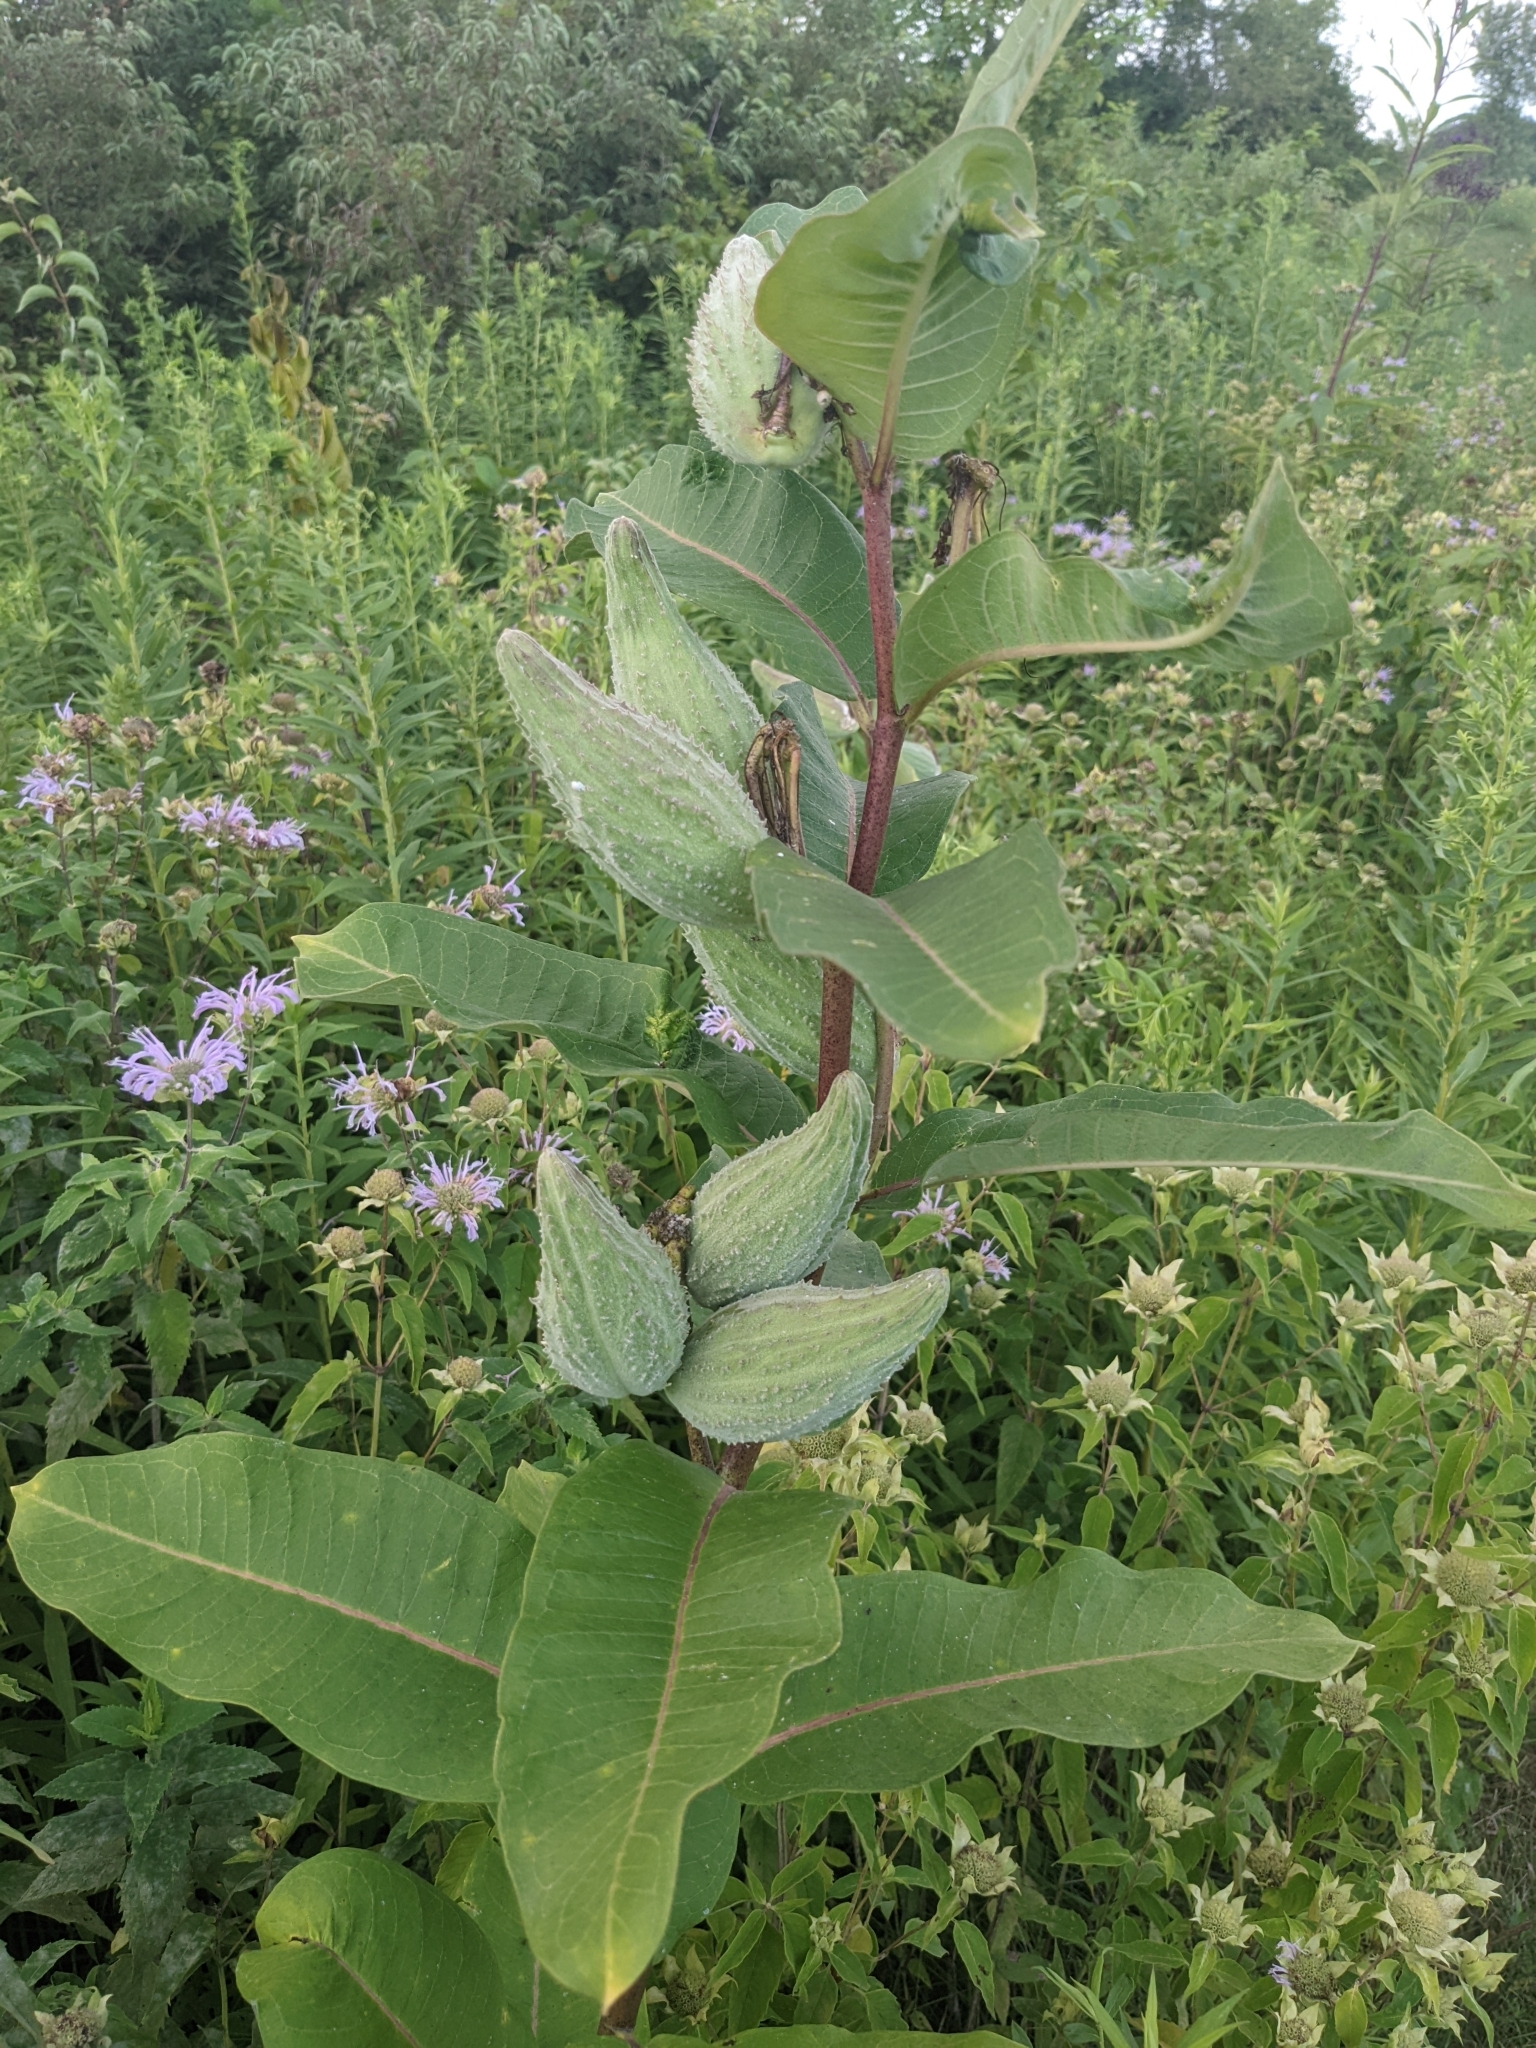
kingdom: Plantae
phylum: Tracheophyta
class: Magnoliopsida
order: Gentianales
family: Apocynaceae
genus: Asclepias
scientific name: Asclepias syriaca
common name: Common milkweed
